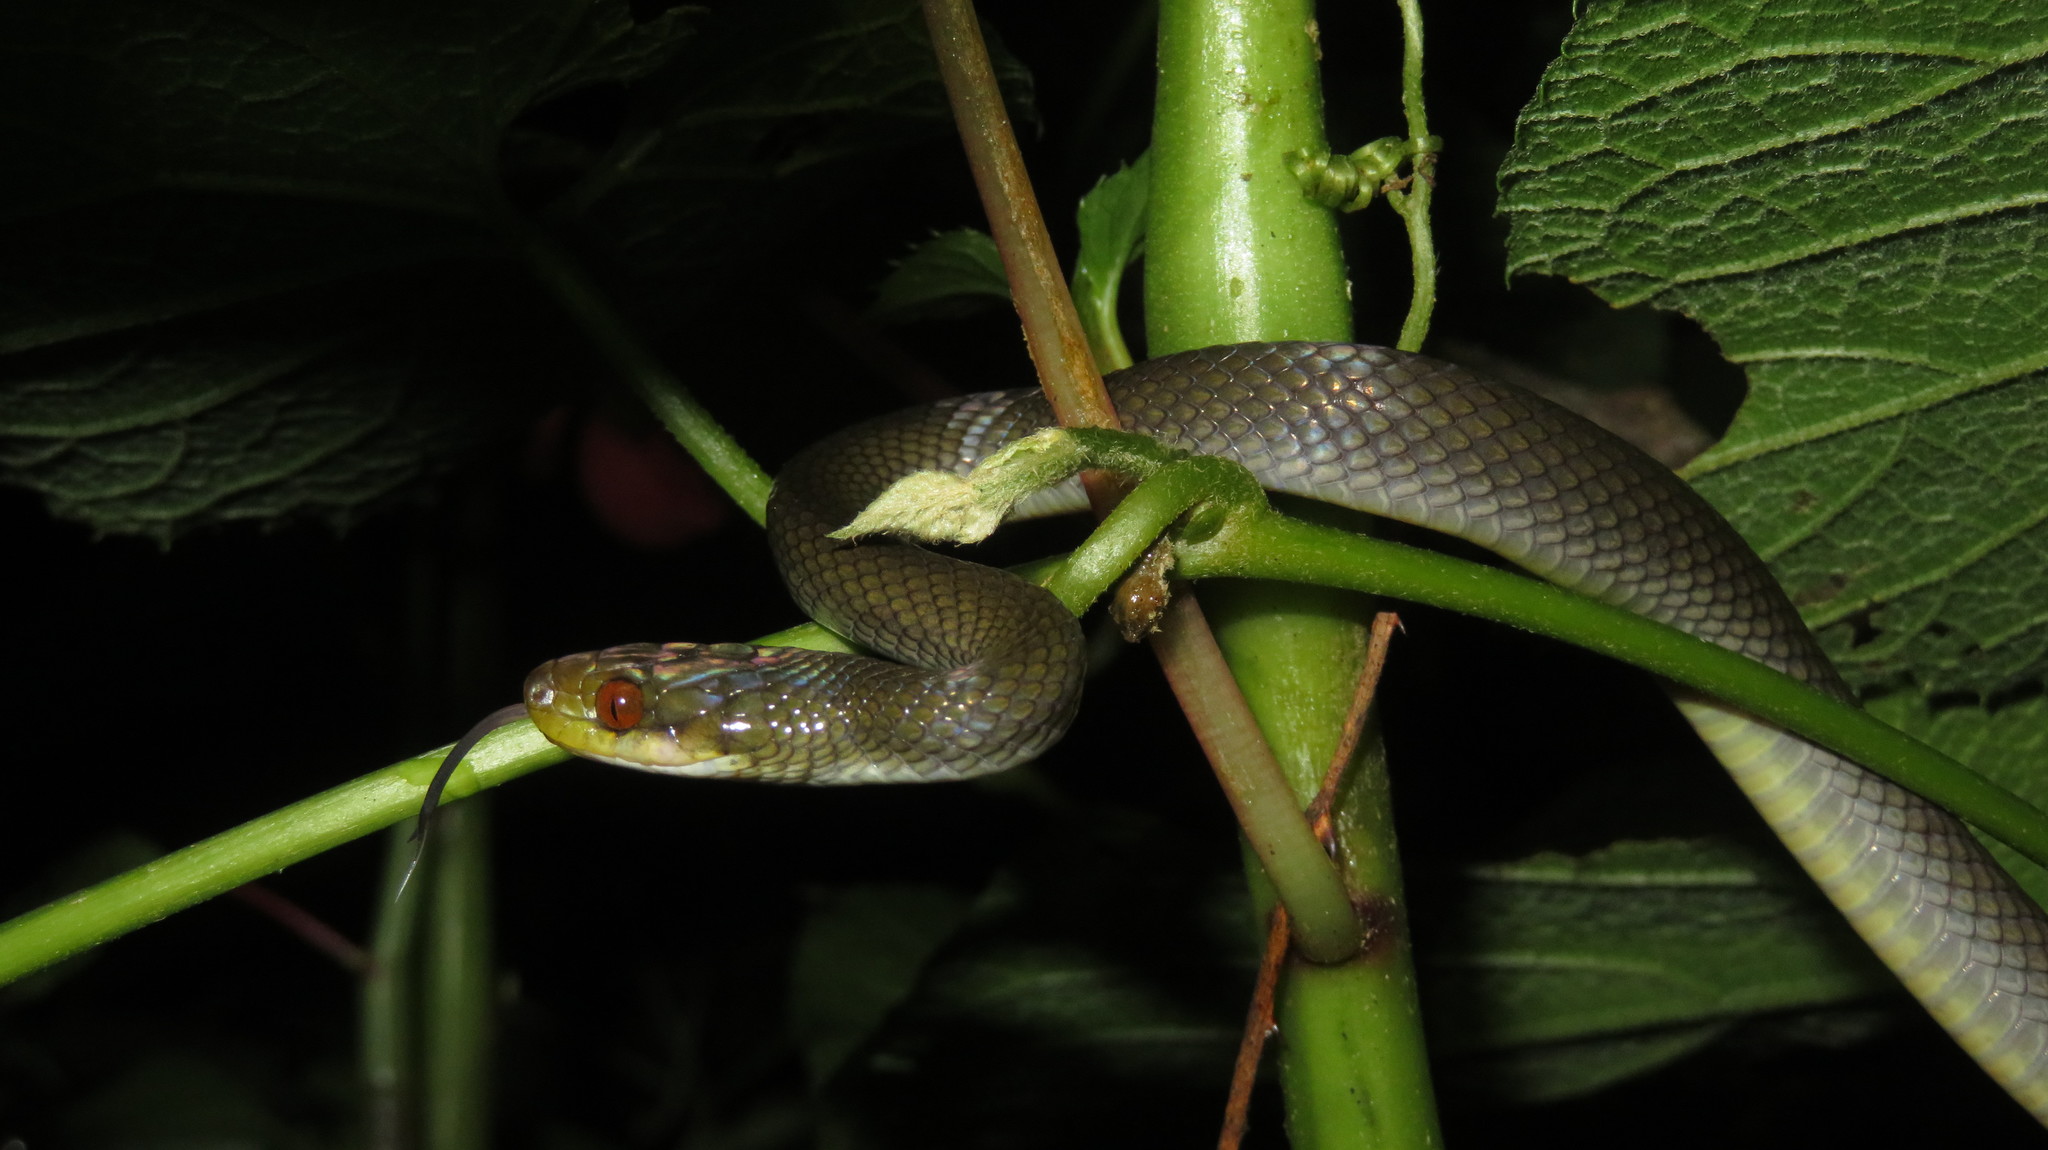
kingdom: Animalia
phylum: Chordata
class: Squamata
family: Colubridae
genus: Crotaphopeltis
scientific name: Crotaphopeltis tornieri
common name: Tornier's cat snake
